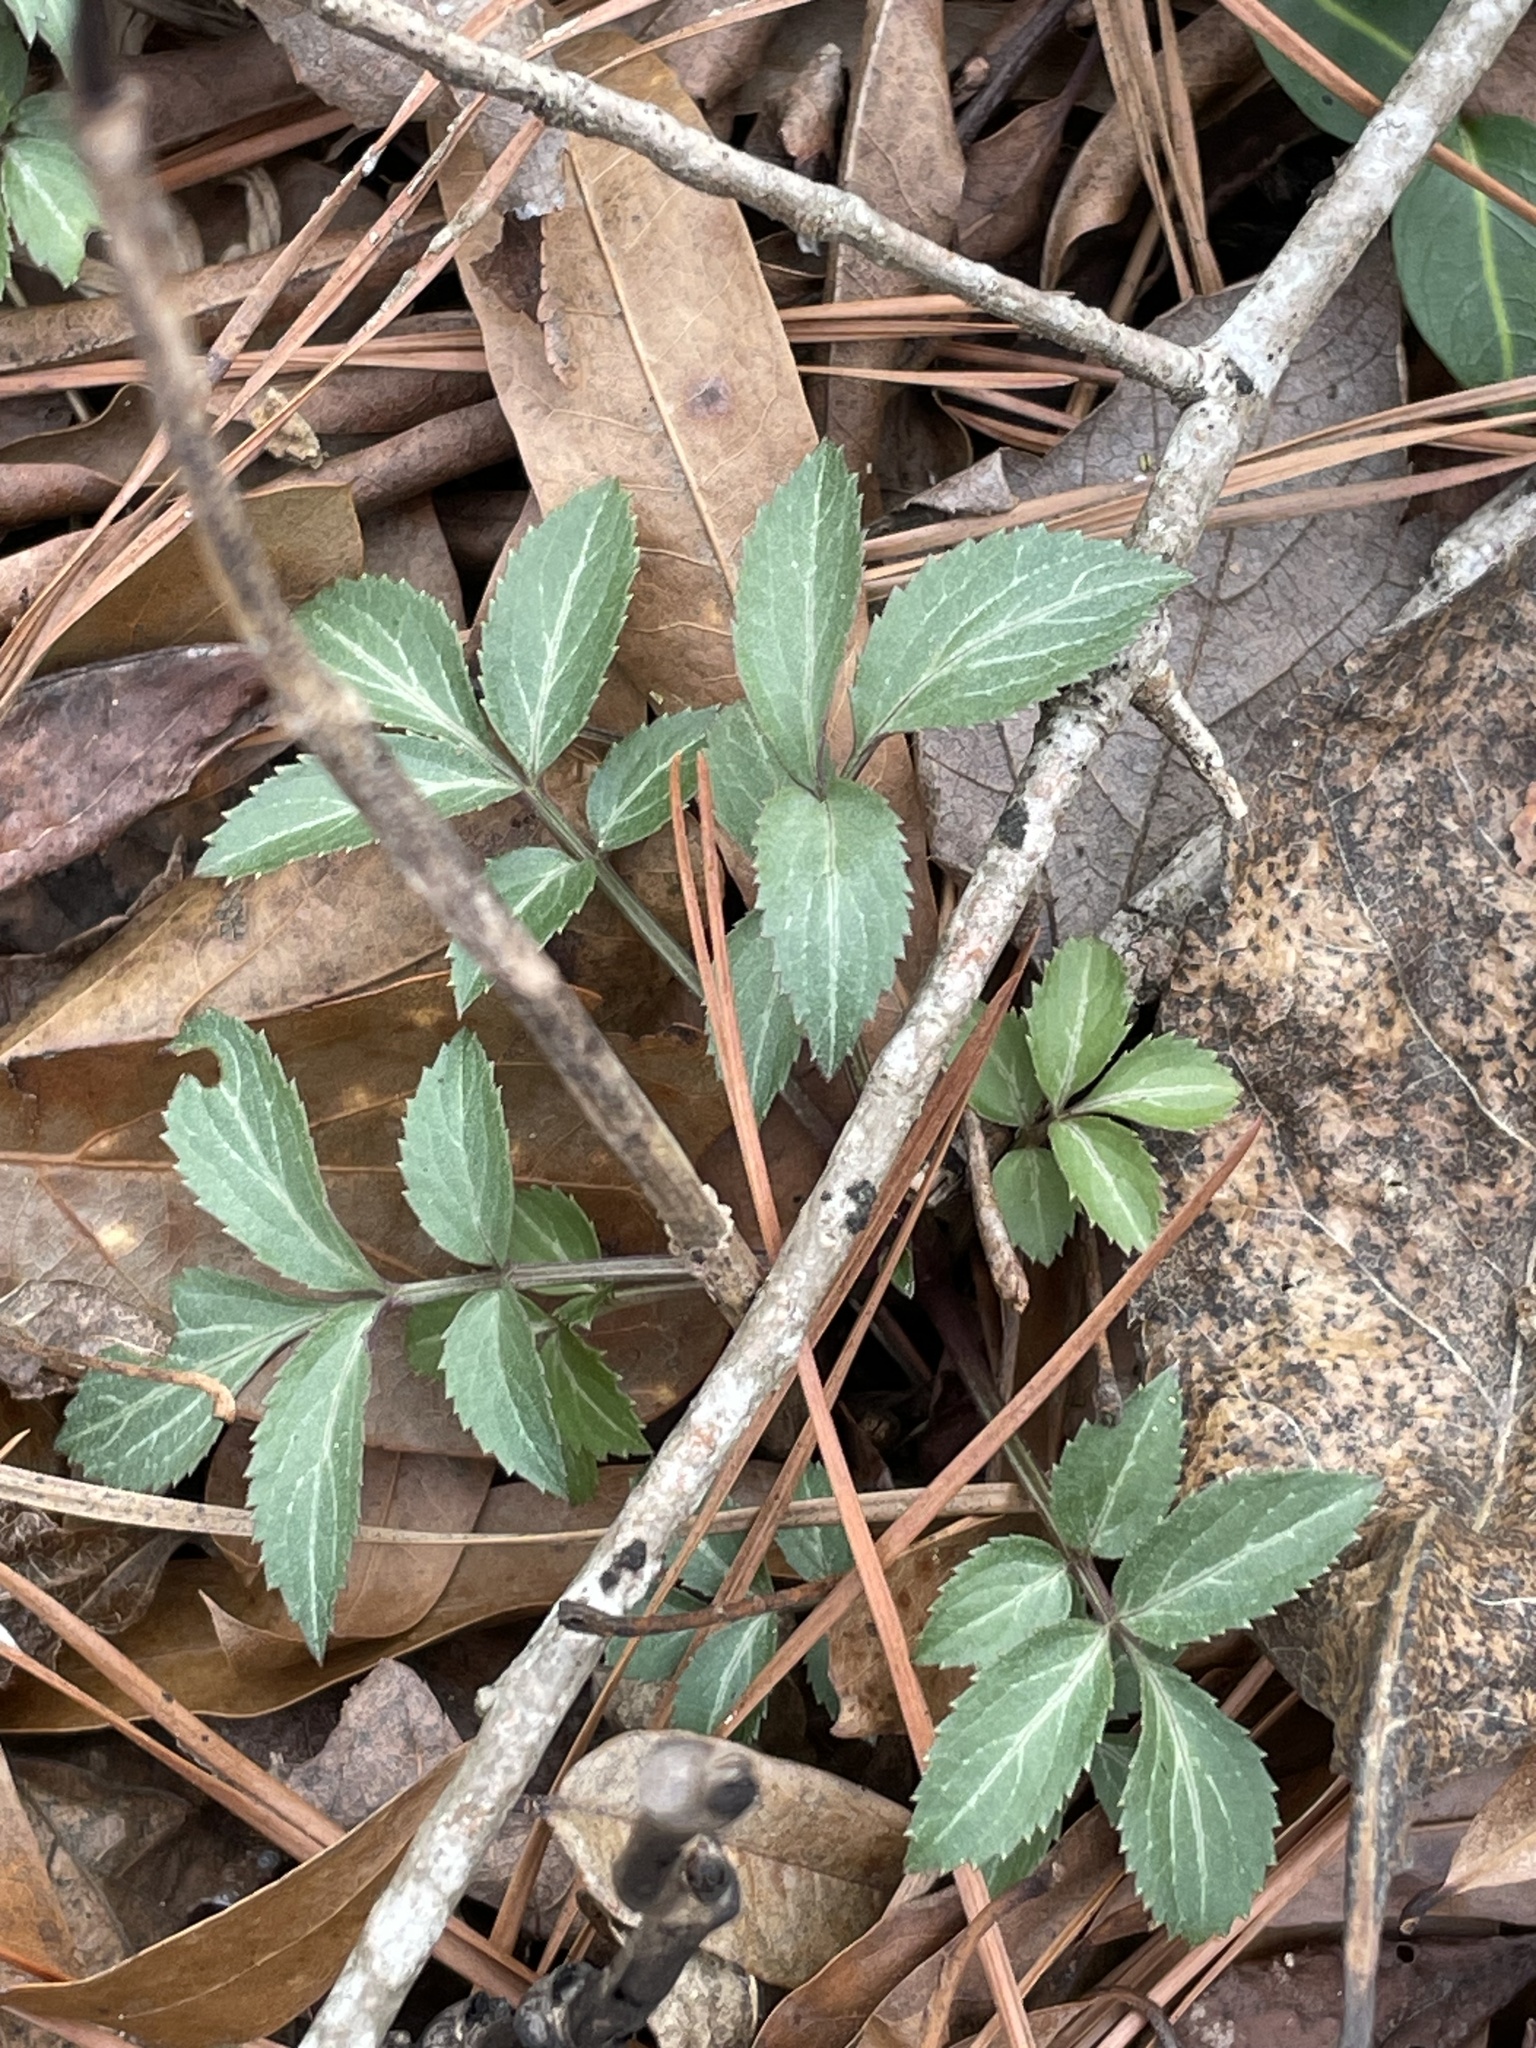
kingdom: Plantae
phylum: Tracheophyta
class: Magnoliopsida
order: Dipsacales
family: Viburnaceae
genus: Sambucus
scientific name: Sambucus canadensis
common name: American elder
